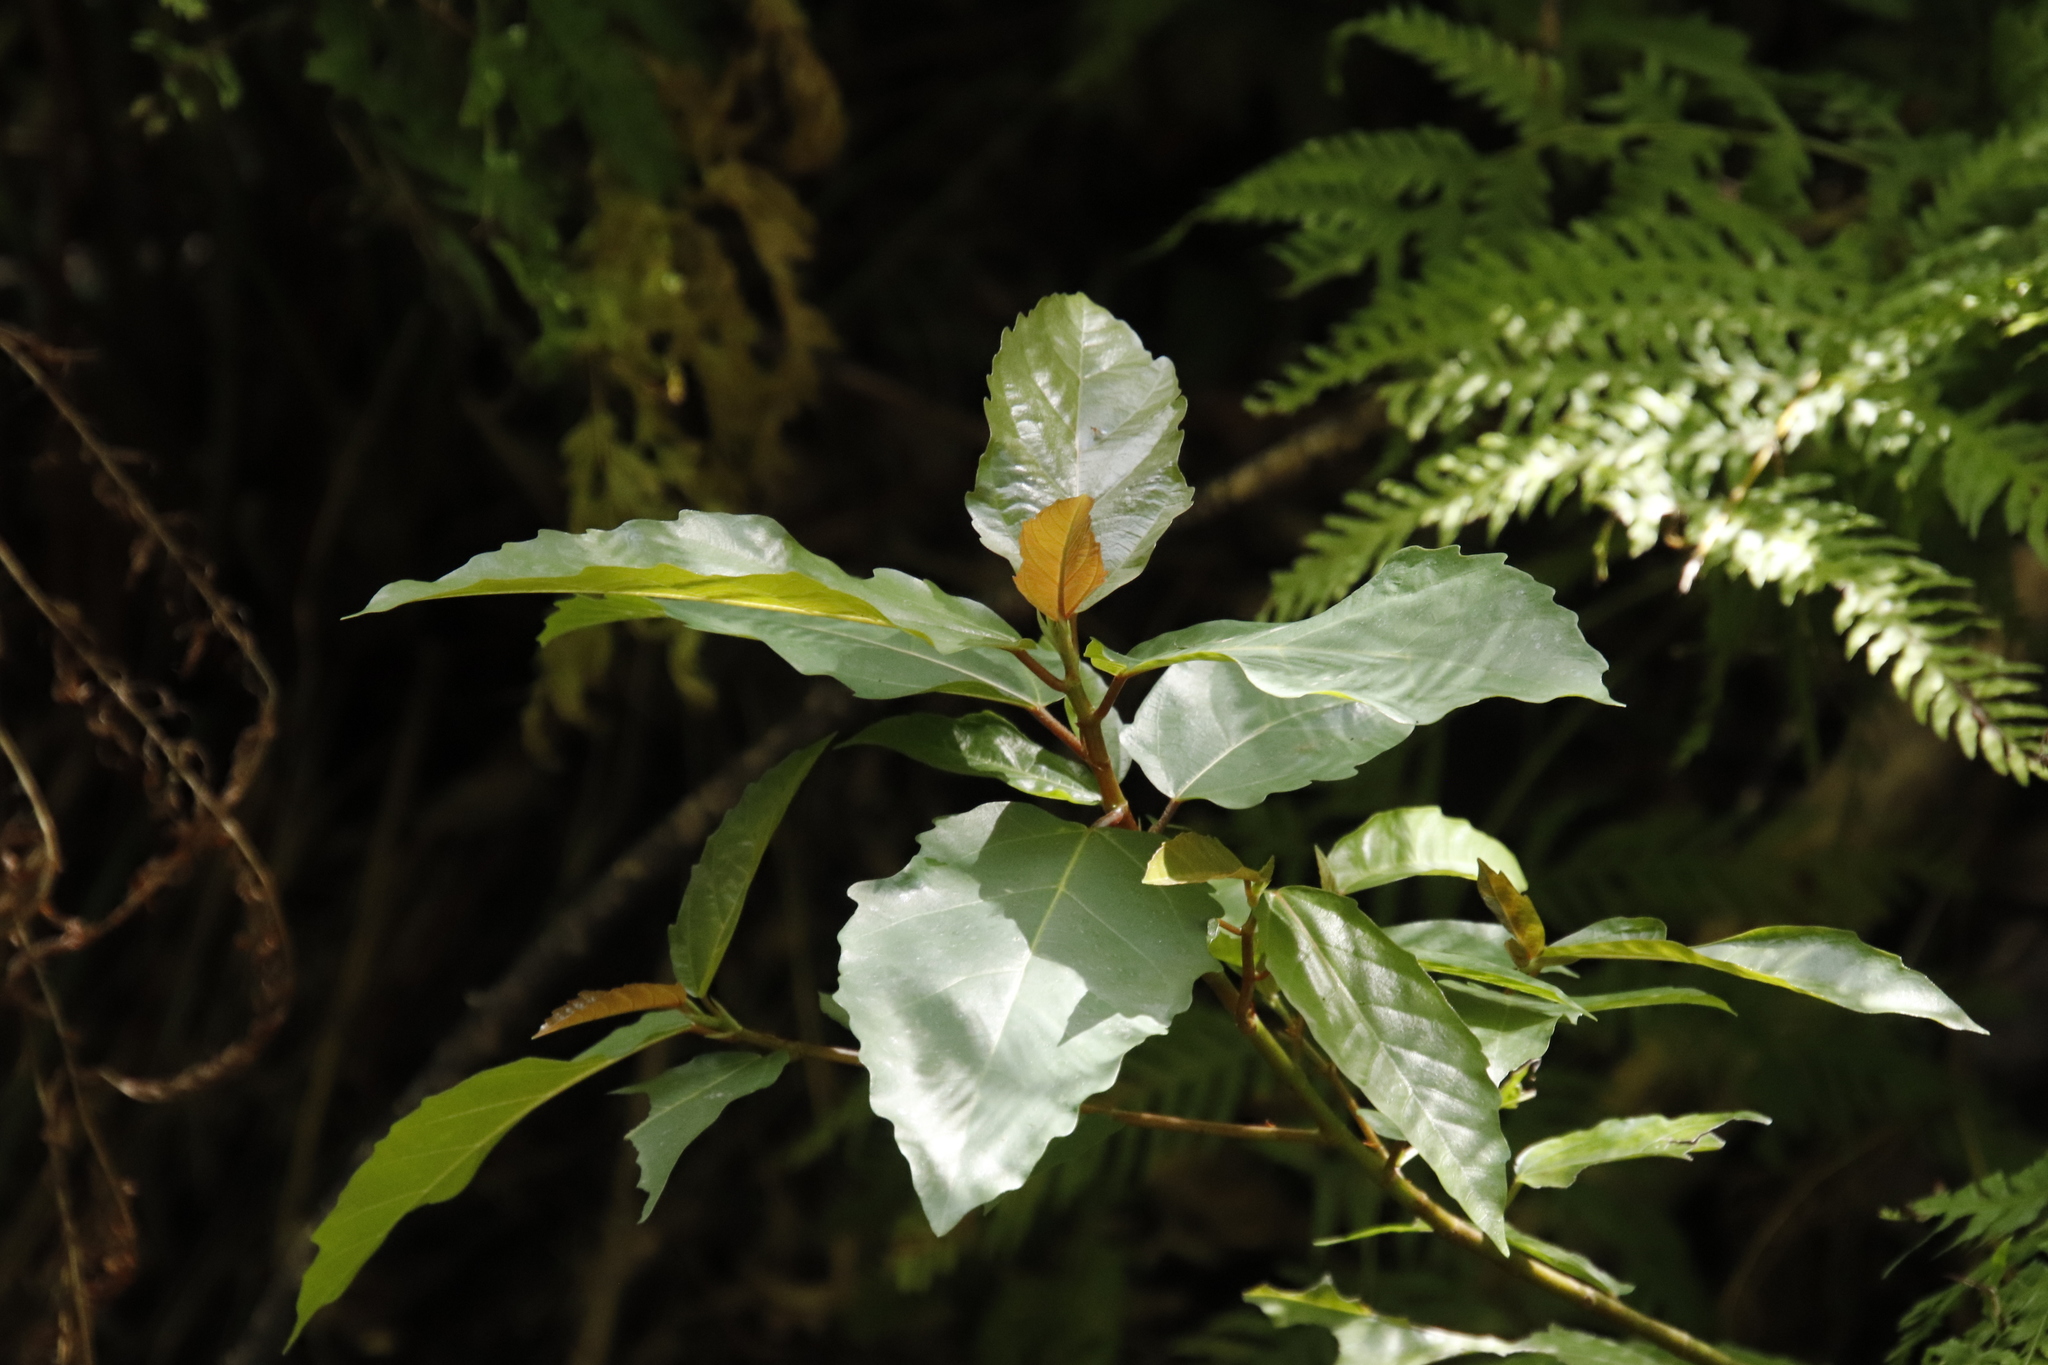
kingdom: Plantae
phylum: Tracheophyta
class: Magnoliopsida
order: Rosales
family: Moraceae
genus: Ficus
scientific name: Ficus sur
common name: Cape fig
